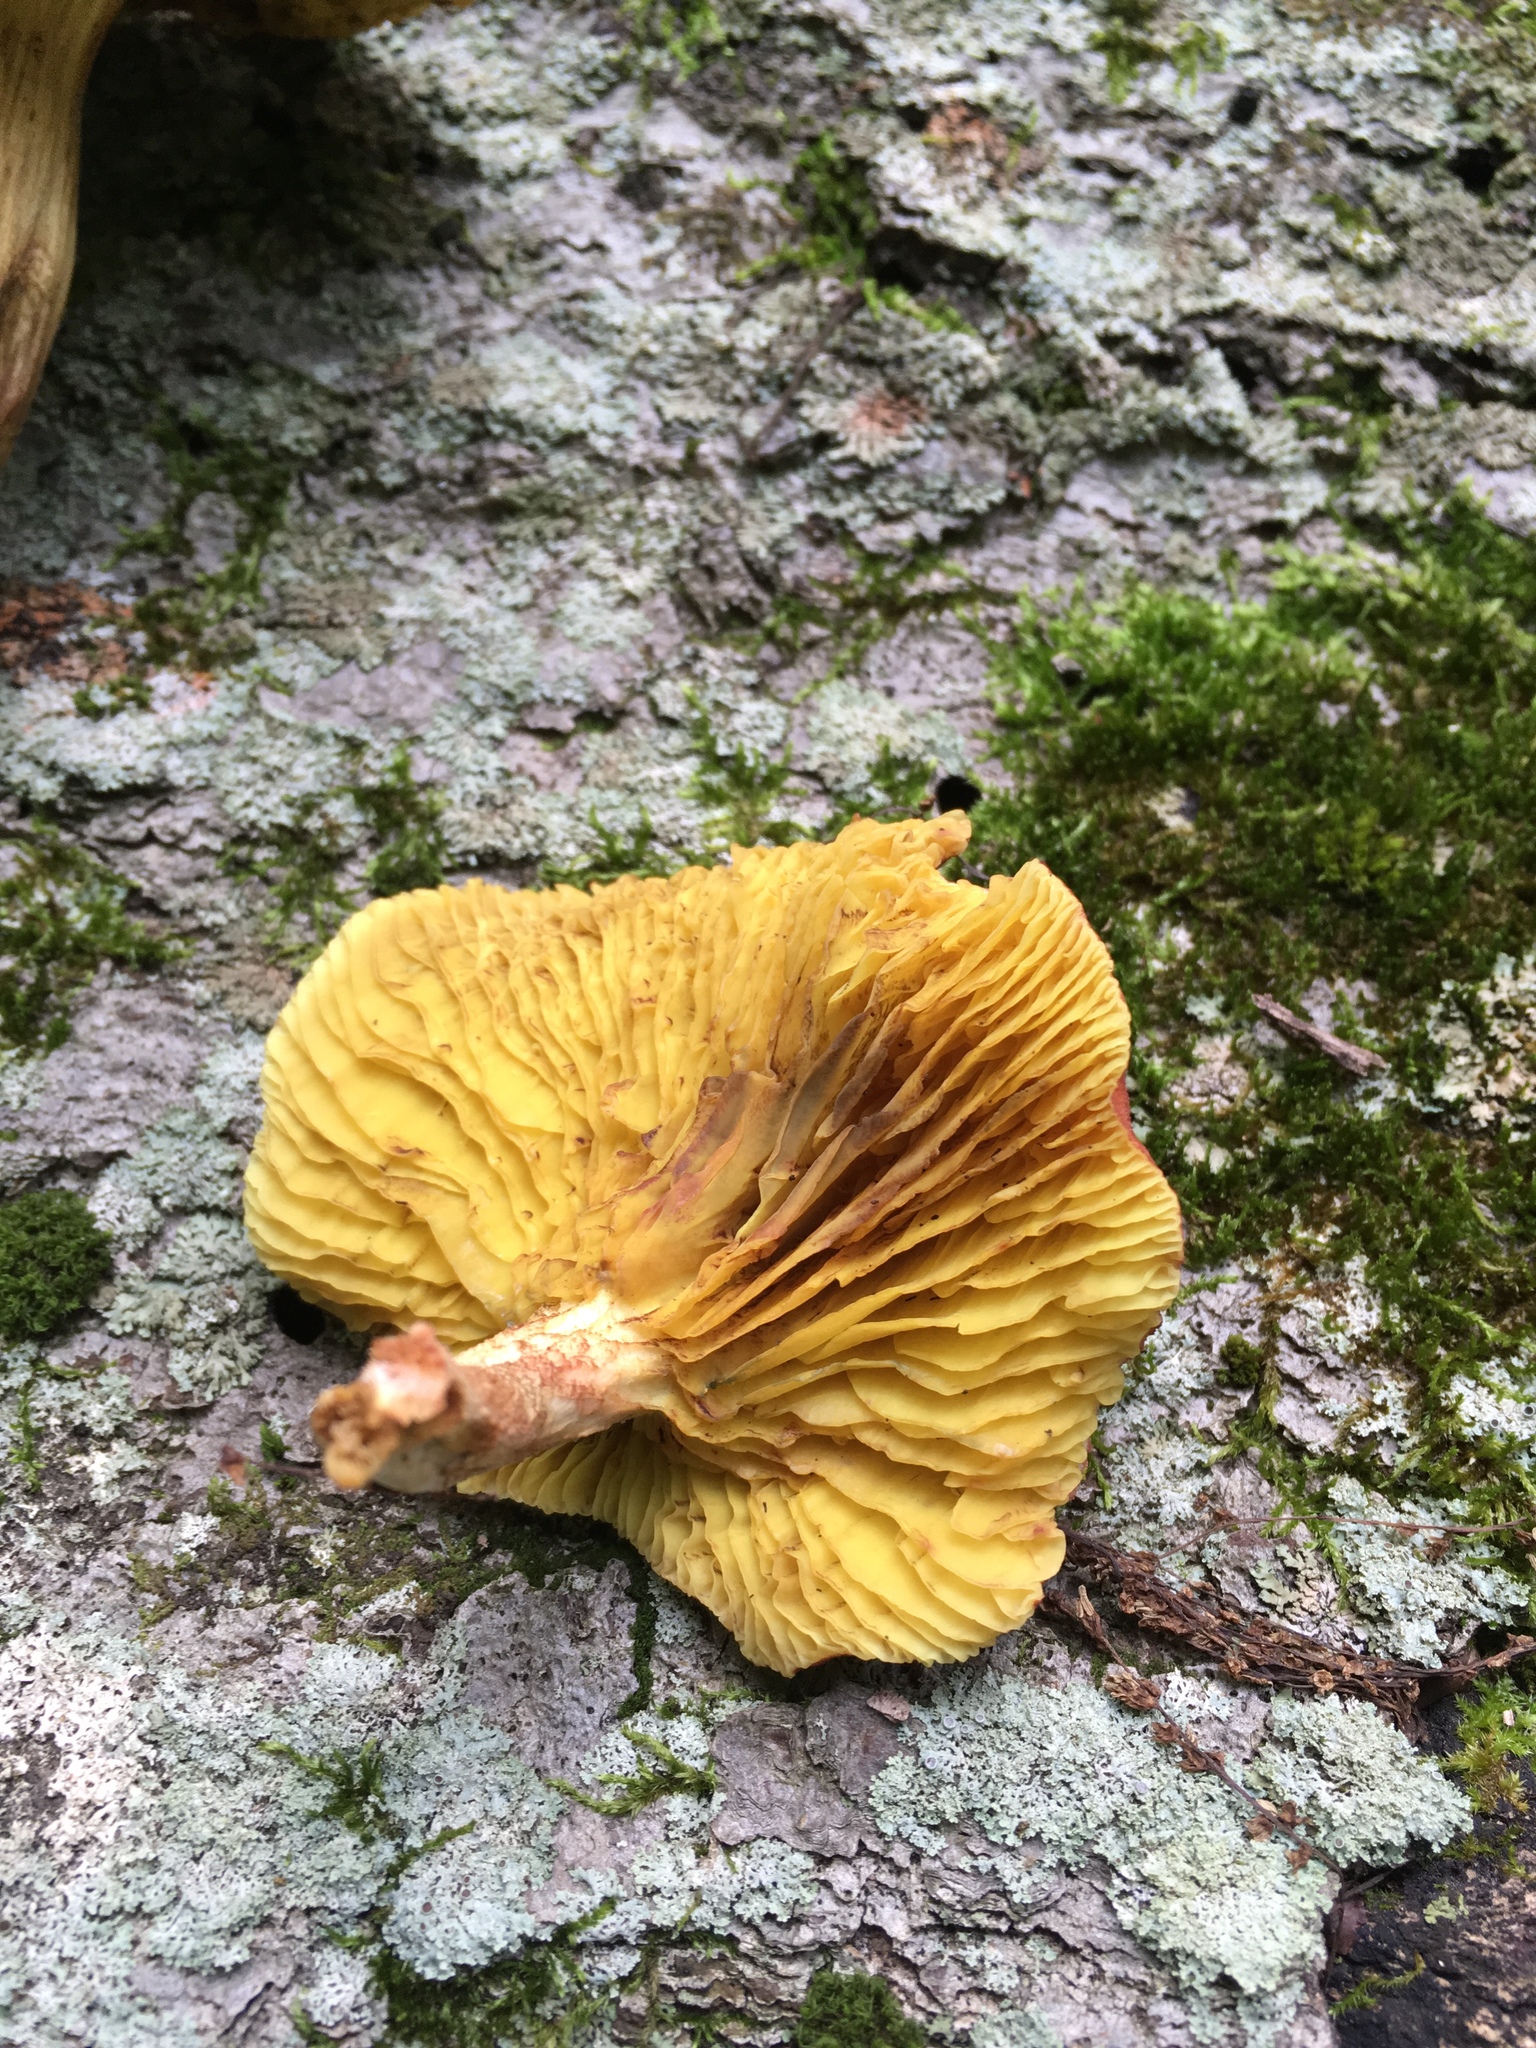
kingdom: Fungi
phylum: Basidiomycota
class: Agaricomycetes
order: Boletales
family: Boletaceae
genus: Phylloporus
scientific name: Phylloporus rhodoxanthus
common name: Golden gilled bolete
